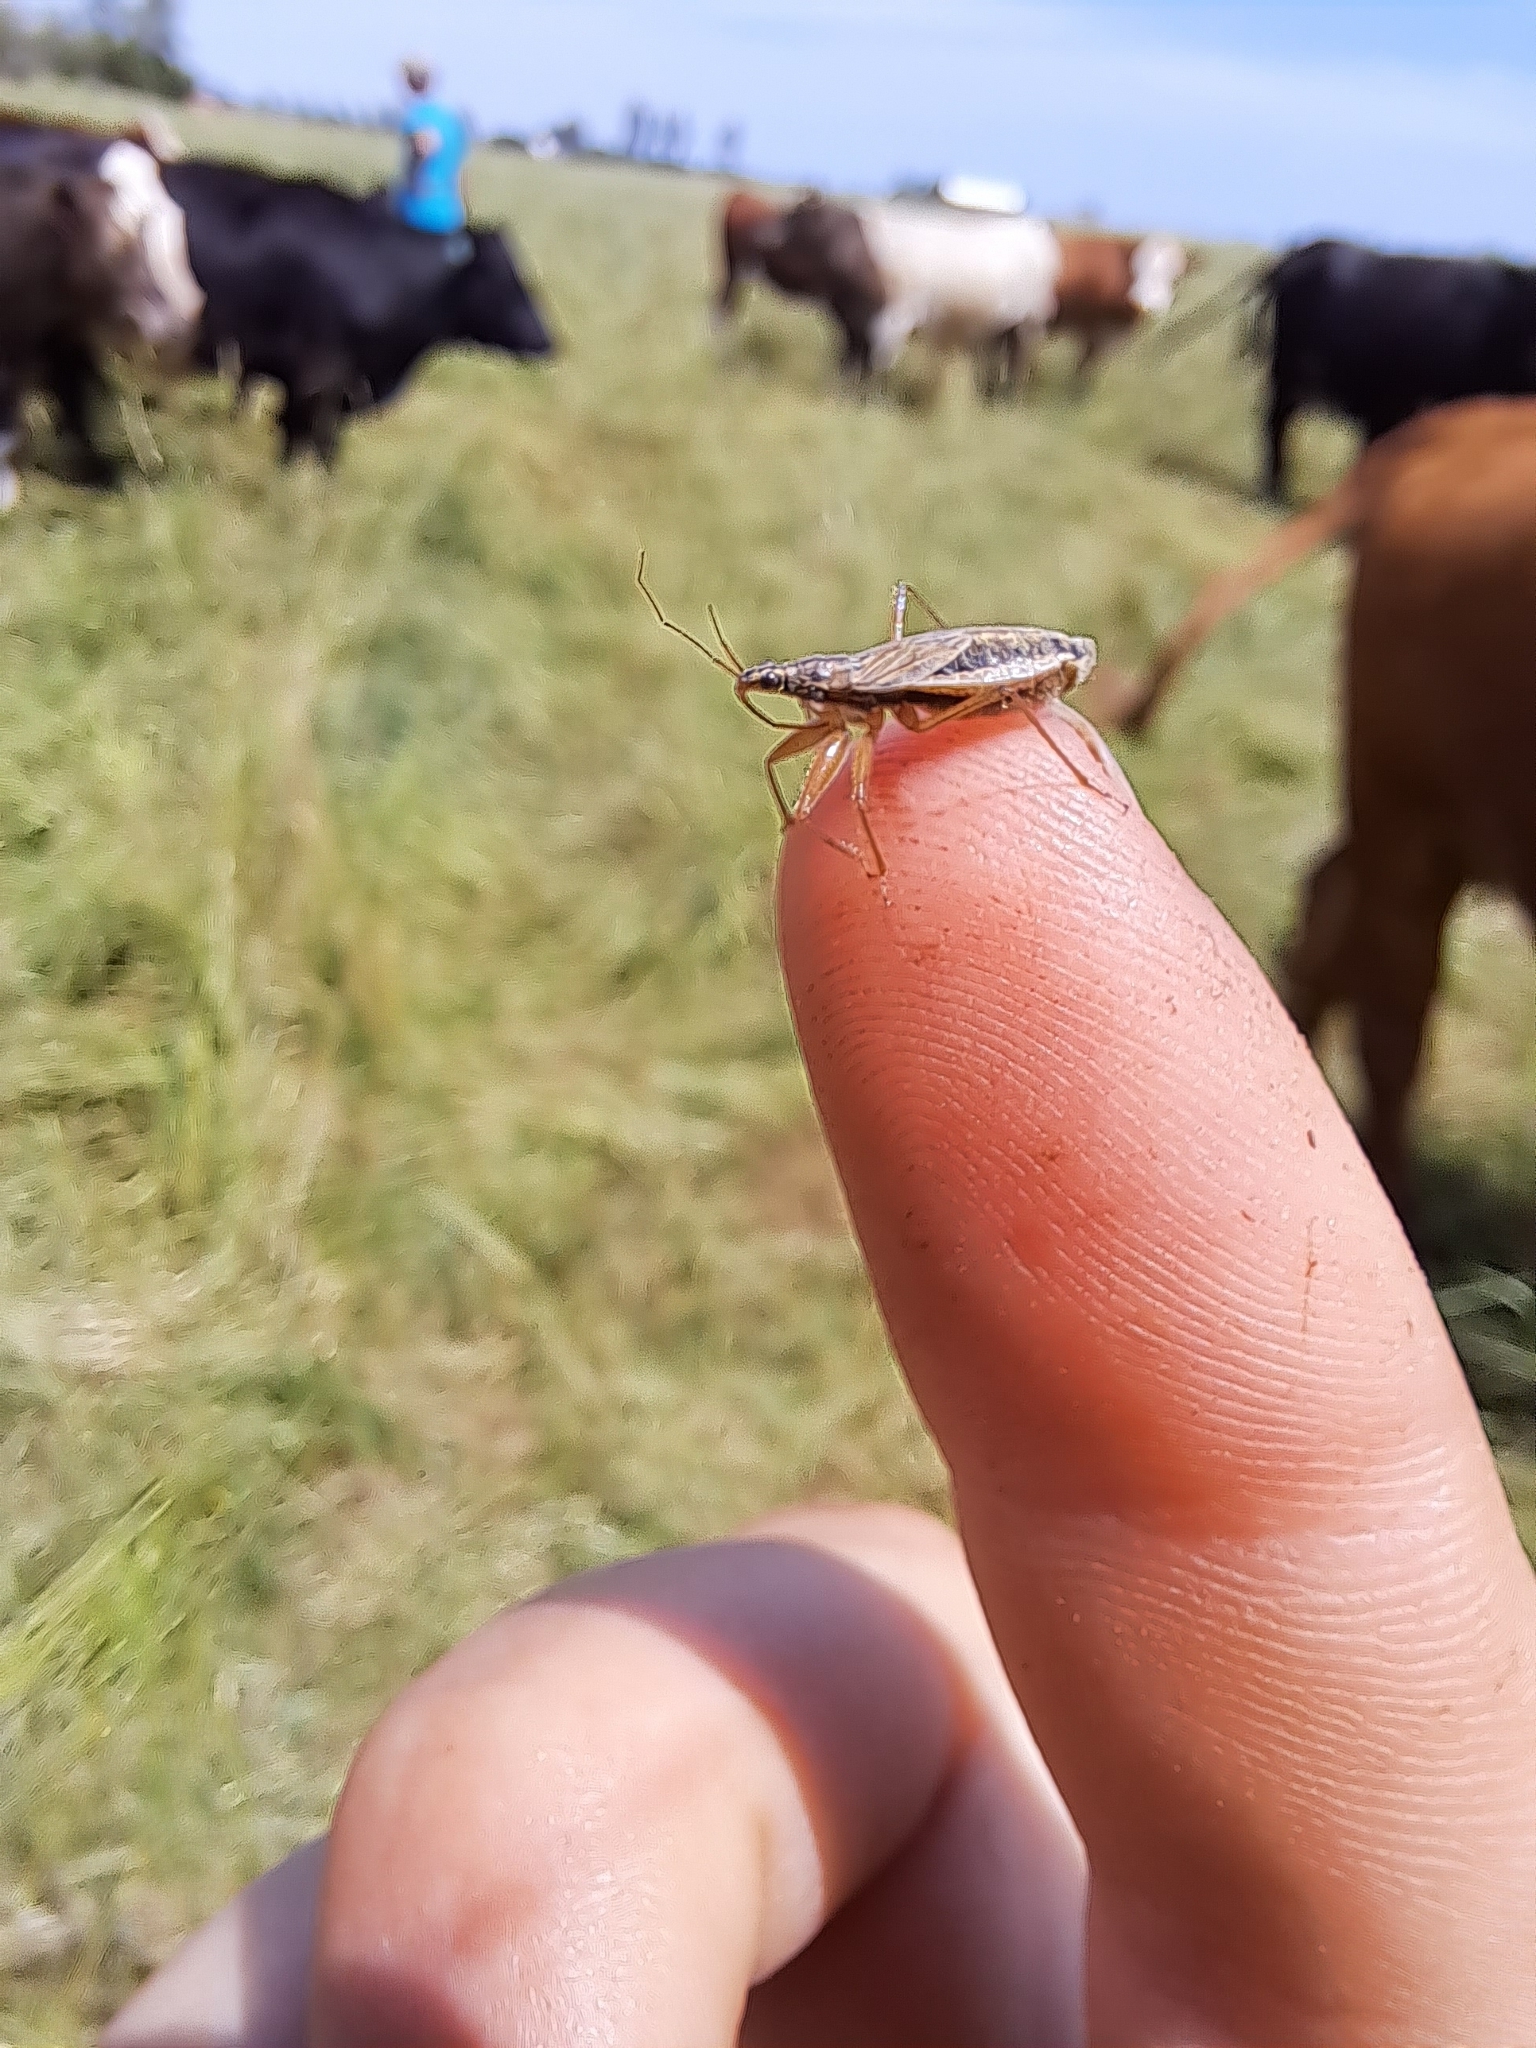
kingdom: Animalia
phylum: Arthropoda
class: Insecta
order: Hemiptera
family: Nabidae
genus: Nabis
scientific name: Nabis flavomarginatus
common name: Broad damselbug
